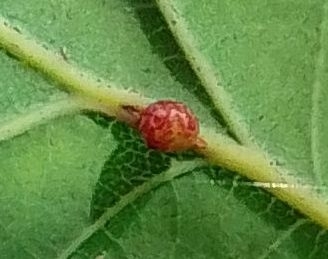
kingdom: Animalia
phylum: Arthropoda
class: Insecta
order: Hymenoptera
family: Cynipidae
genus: Neuroterus
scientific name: Neuroterus anthracinus
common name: Oyster gall
